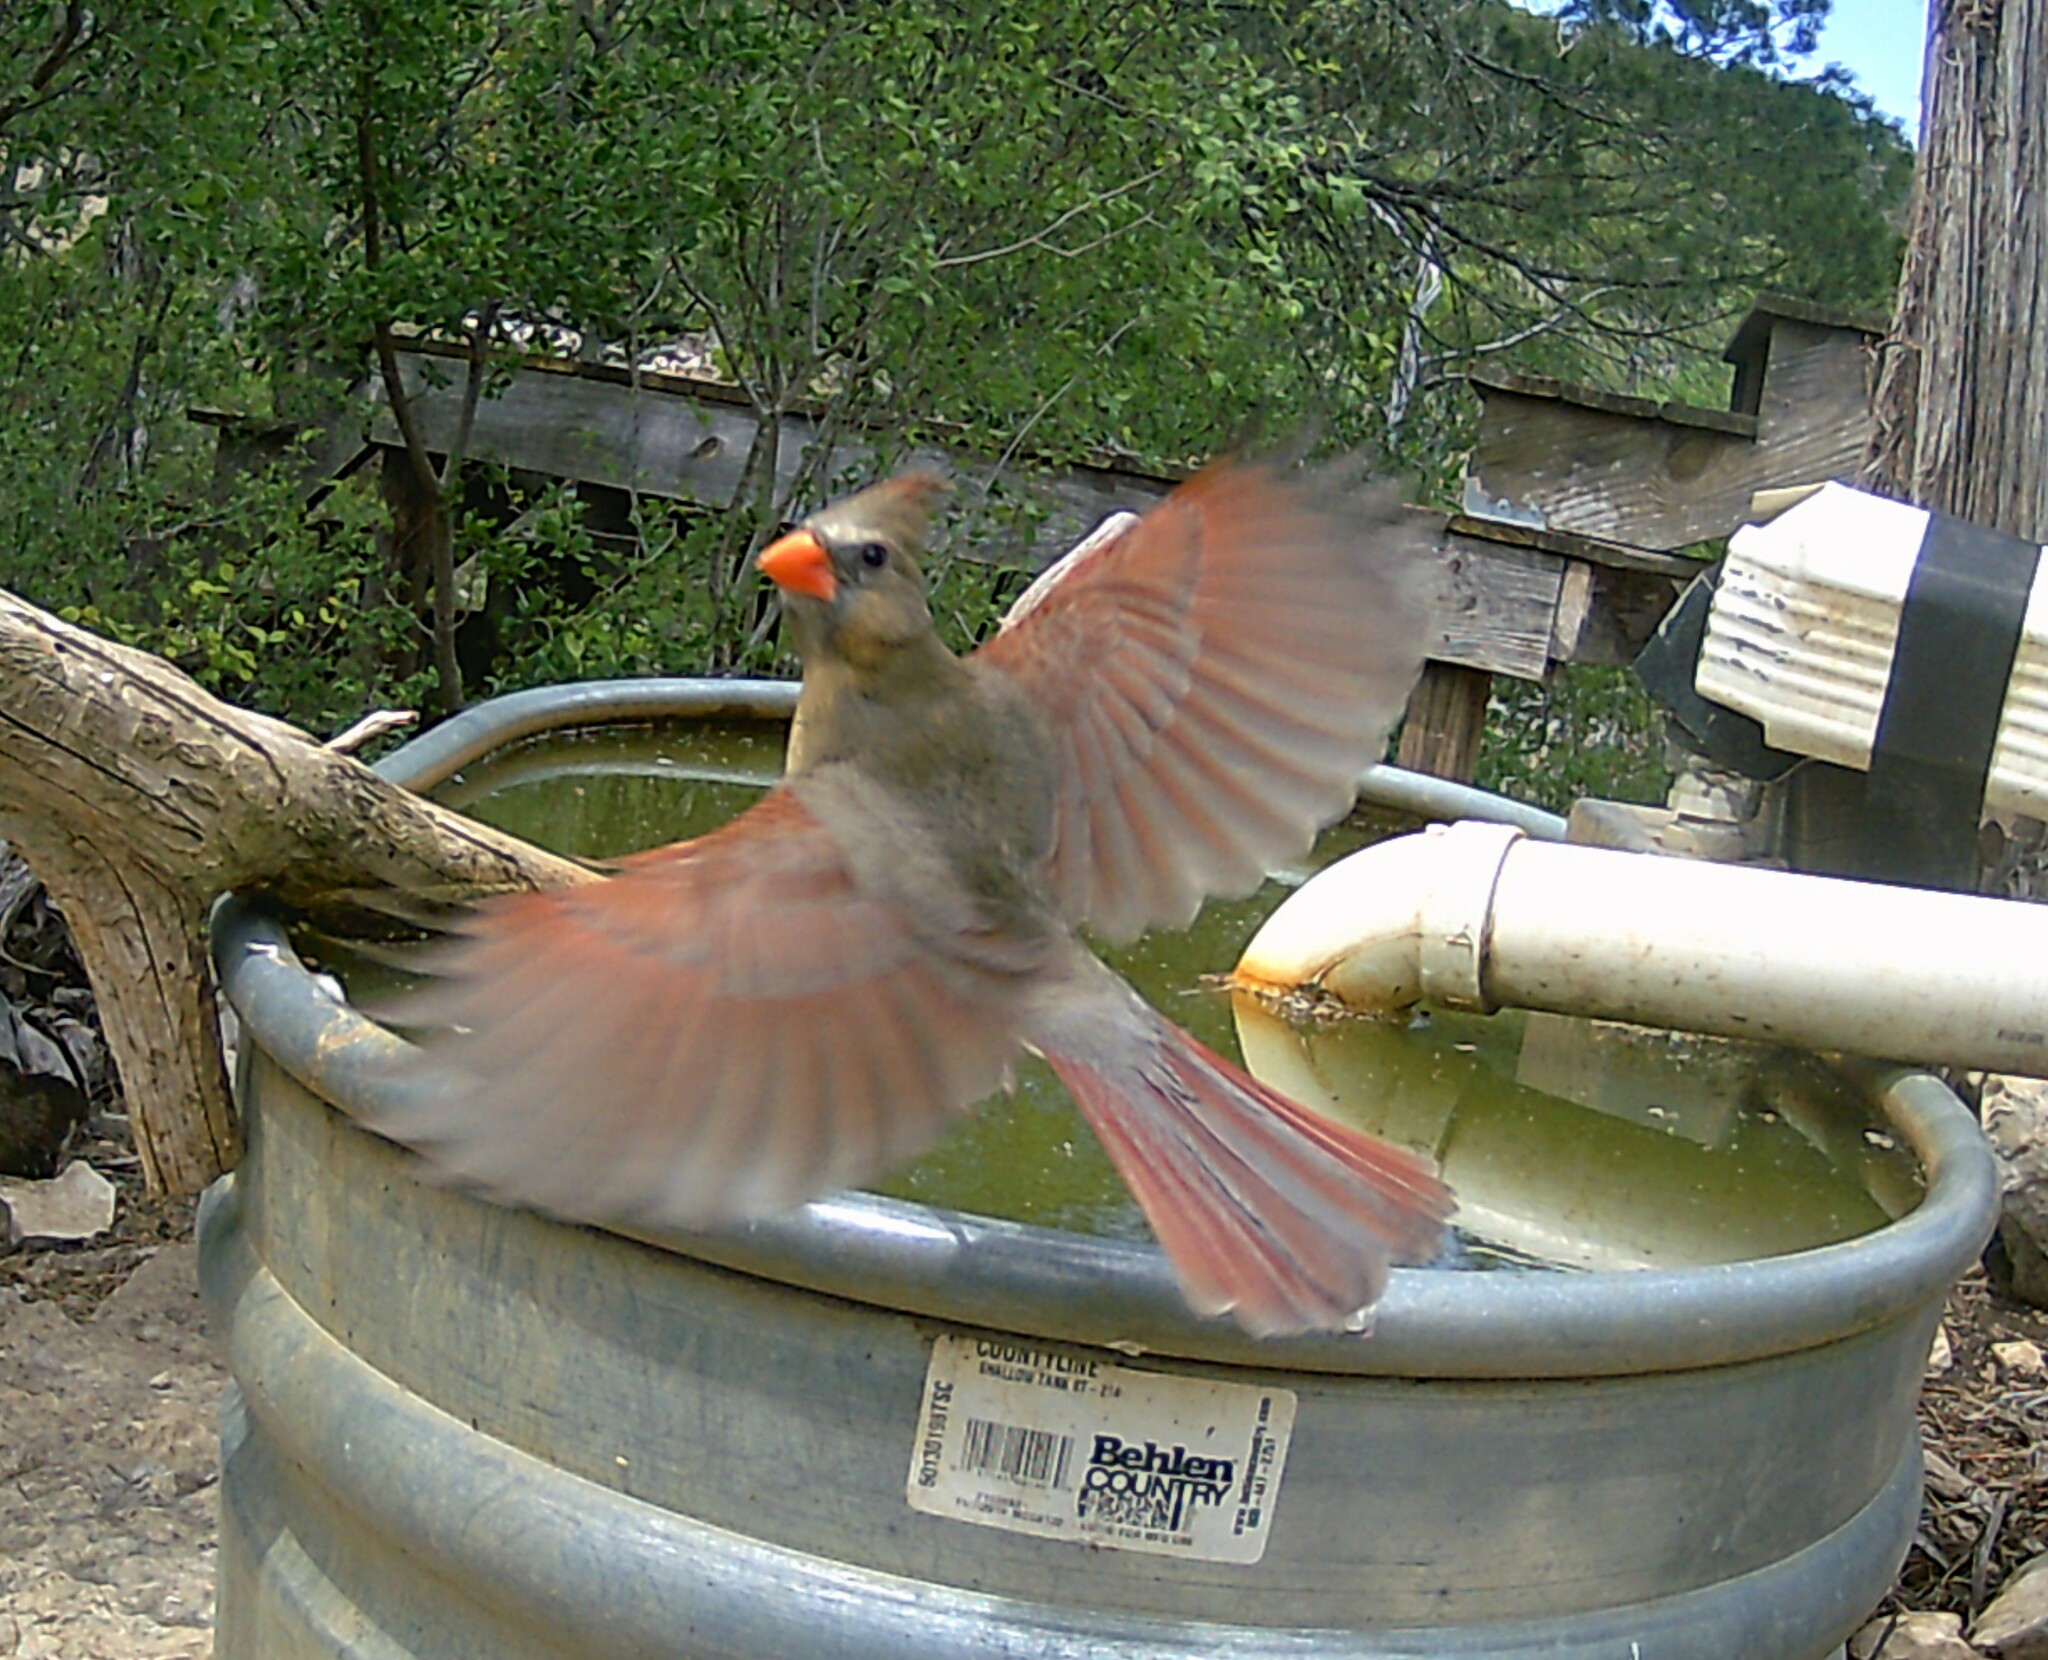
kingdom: Animalia
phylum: Chordata
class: Aves
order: Passeriformes
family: Cardinalidae
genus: Cardinalis
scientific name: Cardinalis cardinalis
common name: Northern cardinal
